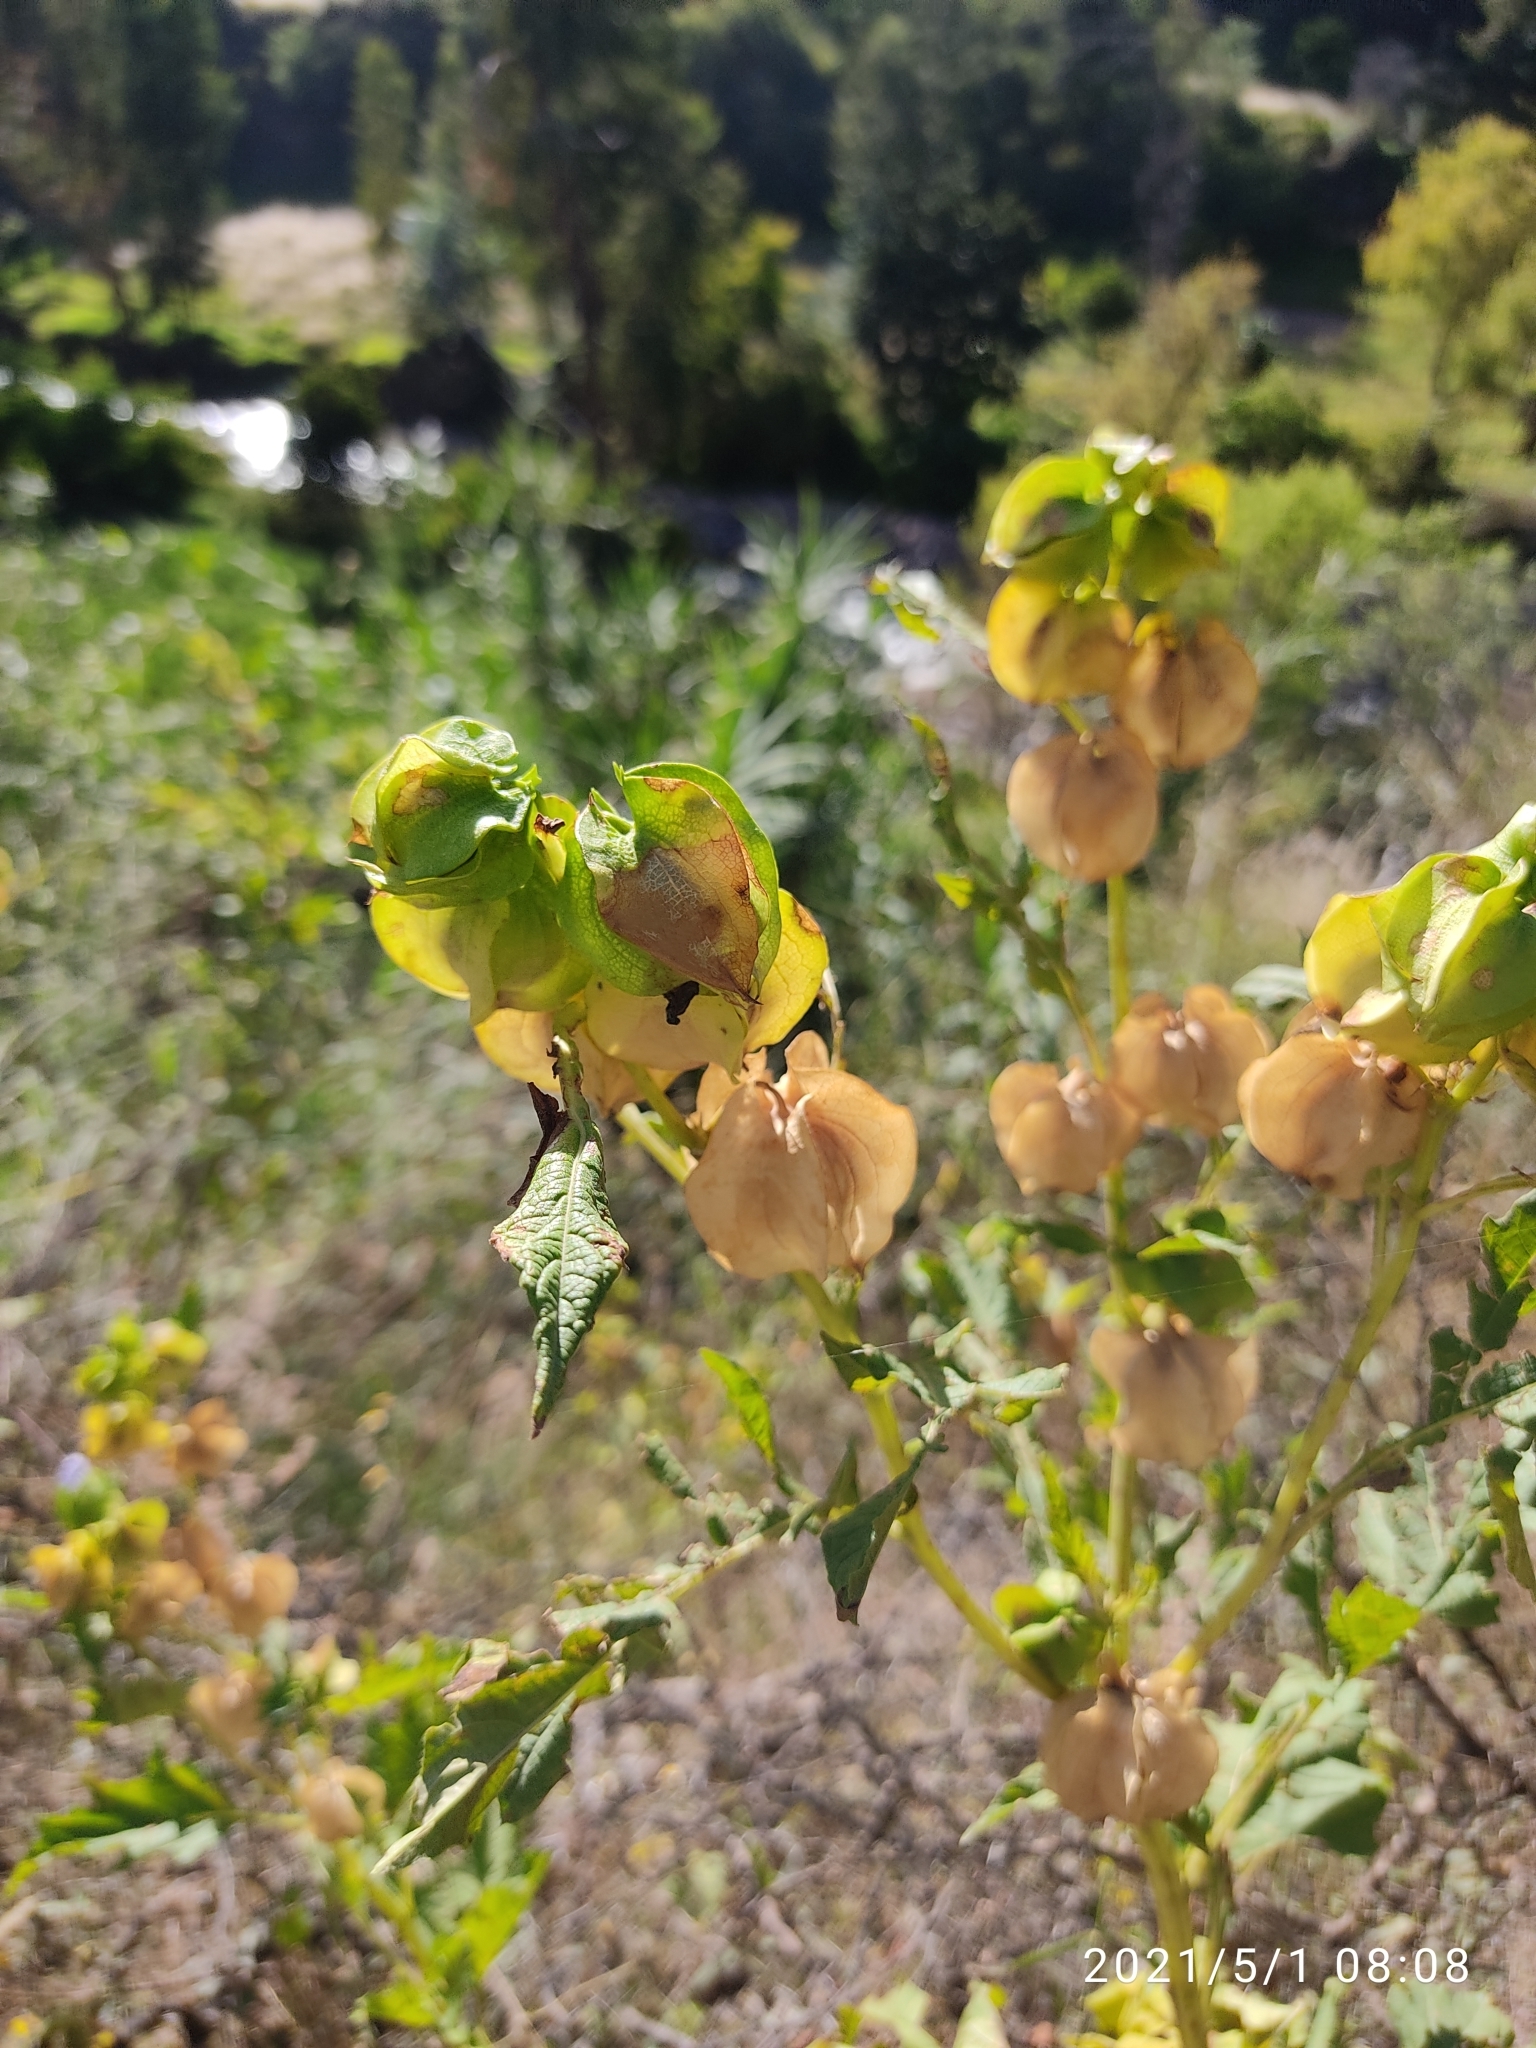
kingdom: Plantae
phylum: Tracheophyta
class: Magnoliopsida
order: Solanales
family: Solanaceae
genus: Nicandra
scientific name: Nicandra physalodes
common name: Apple-of-peru
